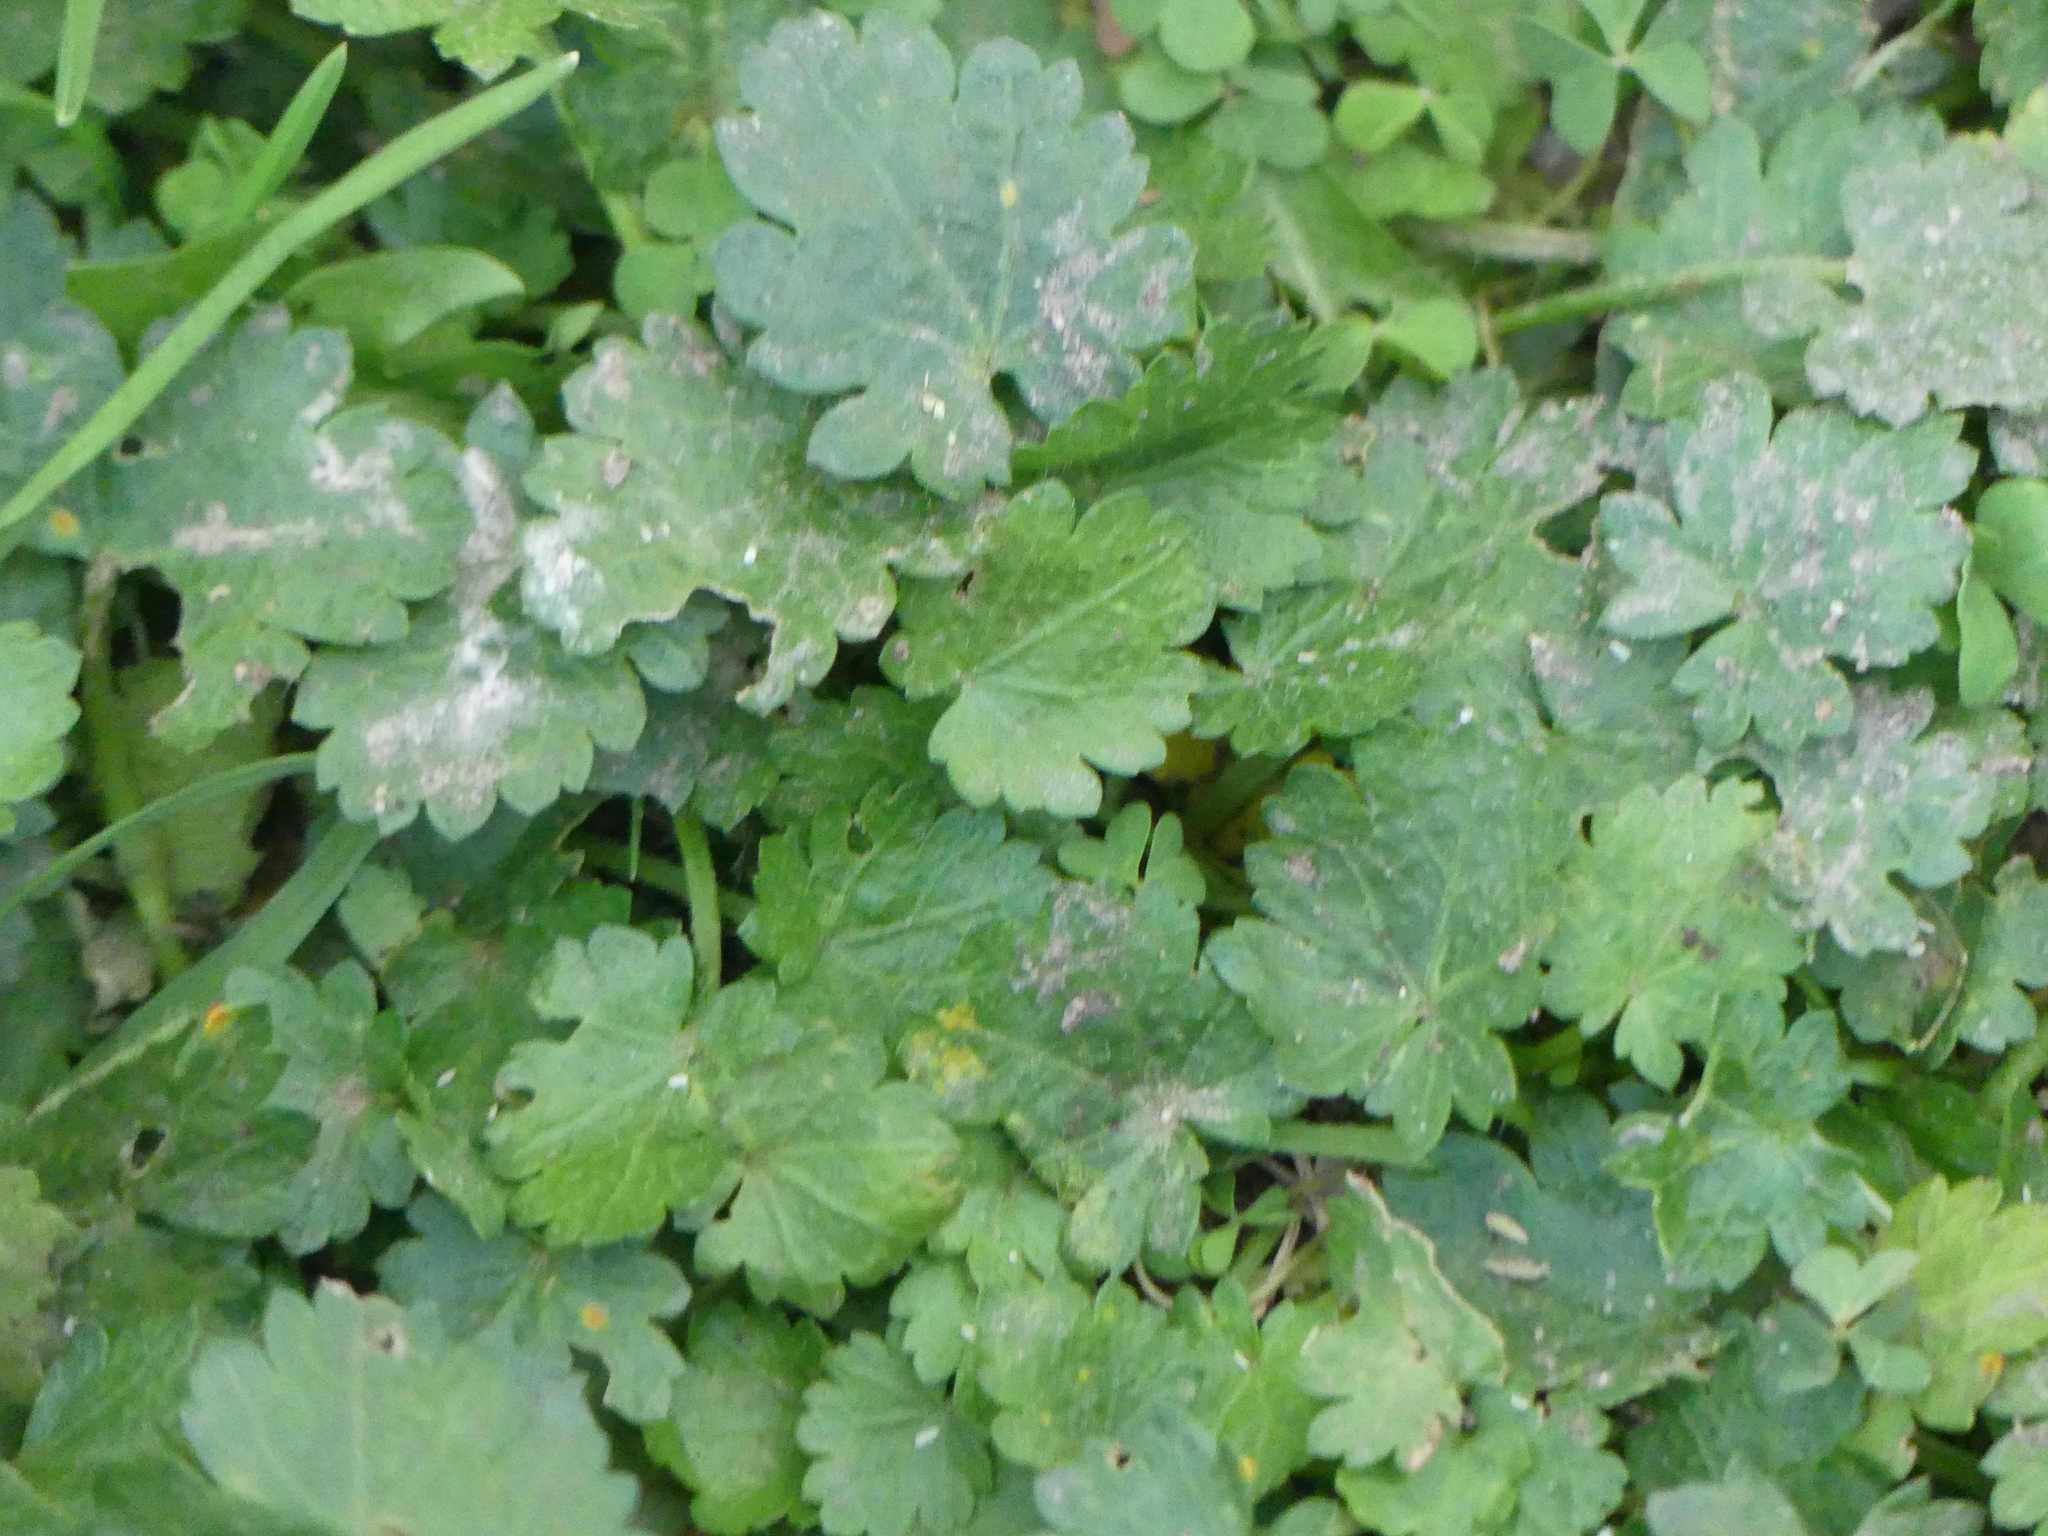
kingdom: Plantae
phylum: Tracheophyta
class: Magnoliopsida
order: Malvales
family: Malvaceae
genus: Modiola
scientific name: Modiola caroliniana
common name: Carolina bristlemallow
